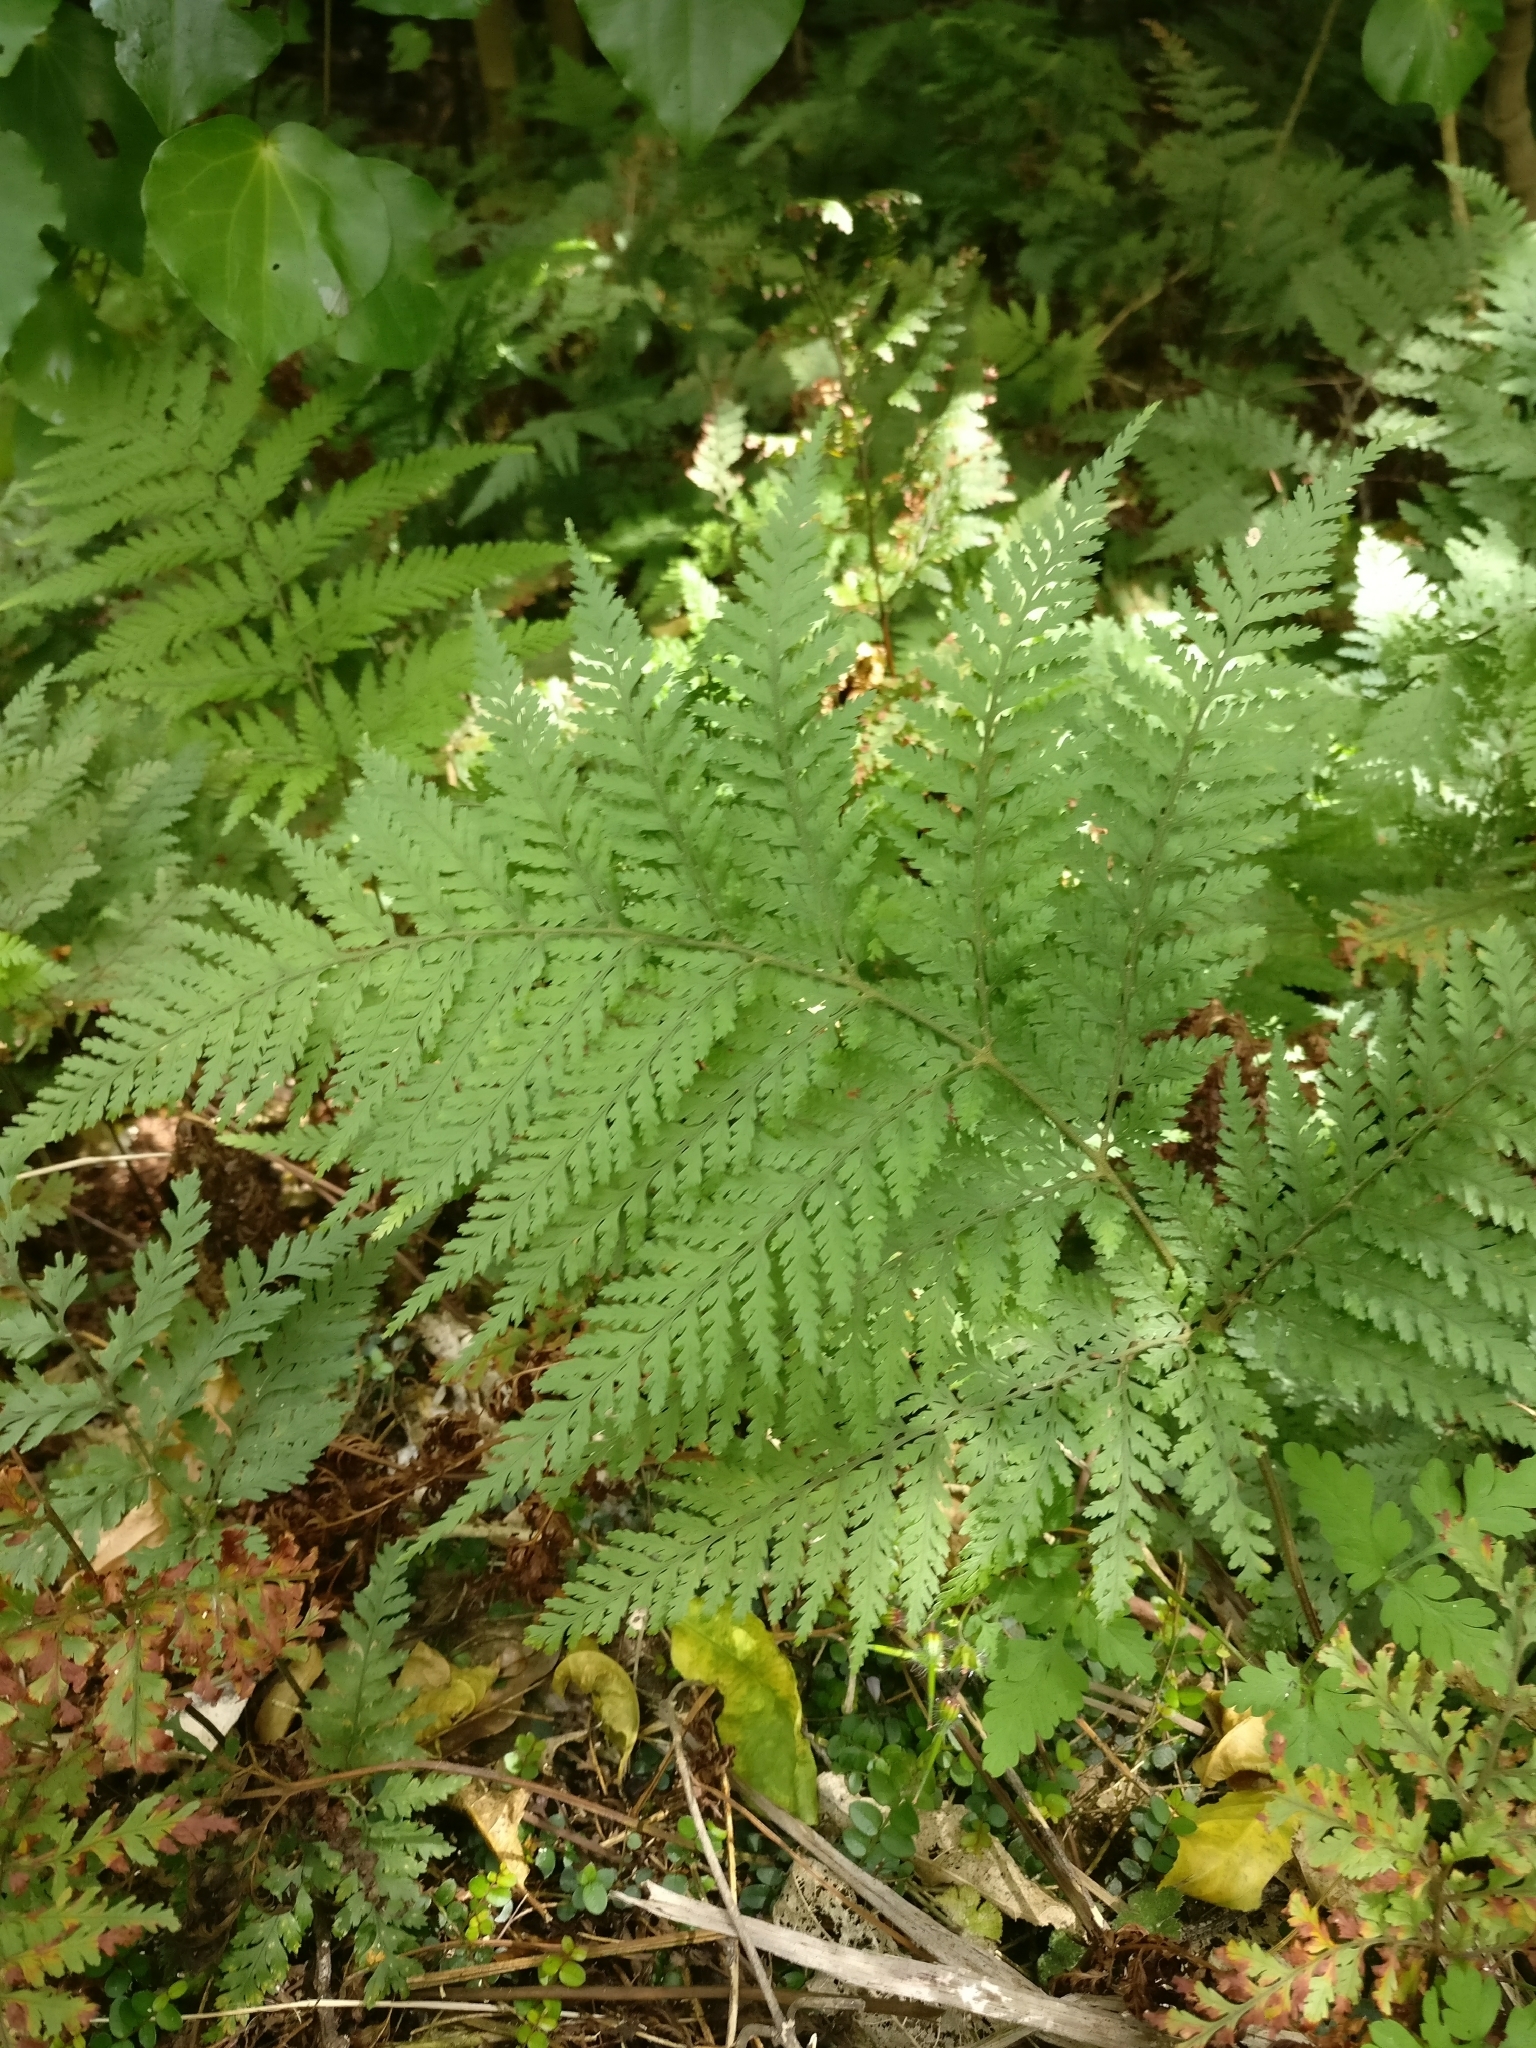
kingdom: Plantae
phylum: Tracheophyta
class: Polypodiopsida
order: Polypodiales
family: Dryopteridaceae
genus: Parapolystichum
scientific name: Parapolystichum microsorum
